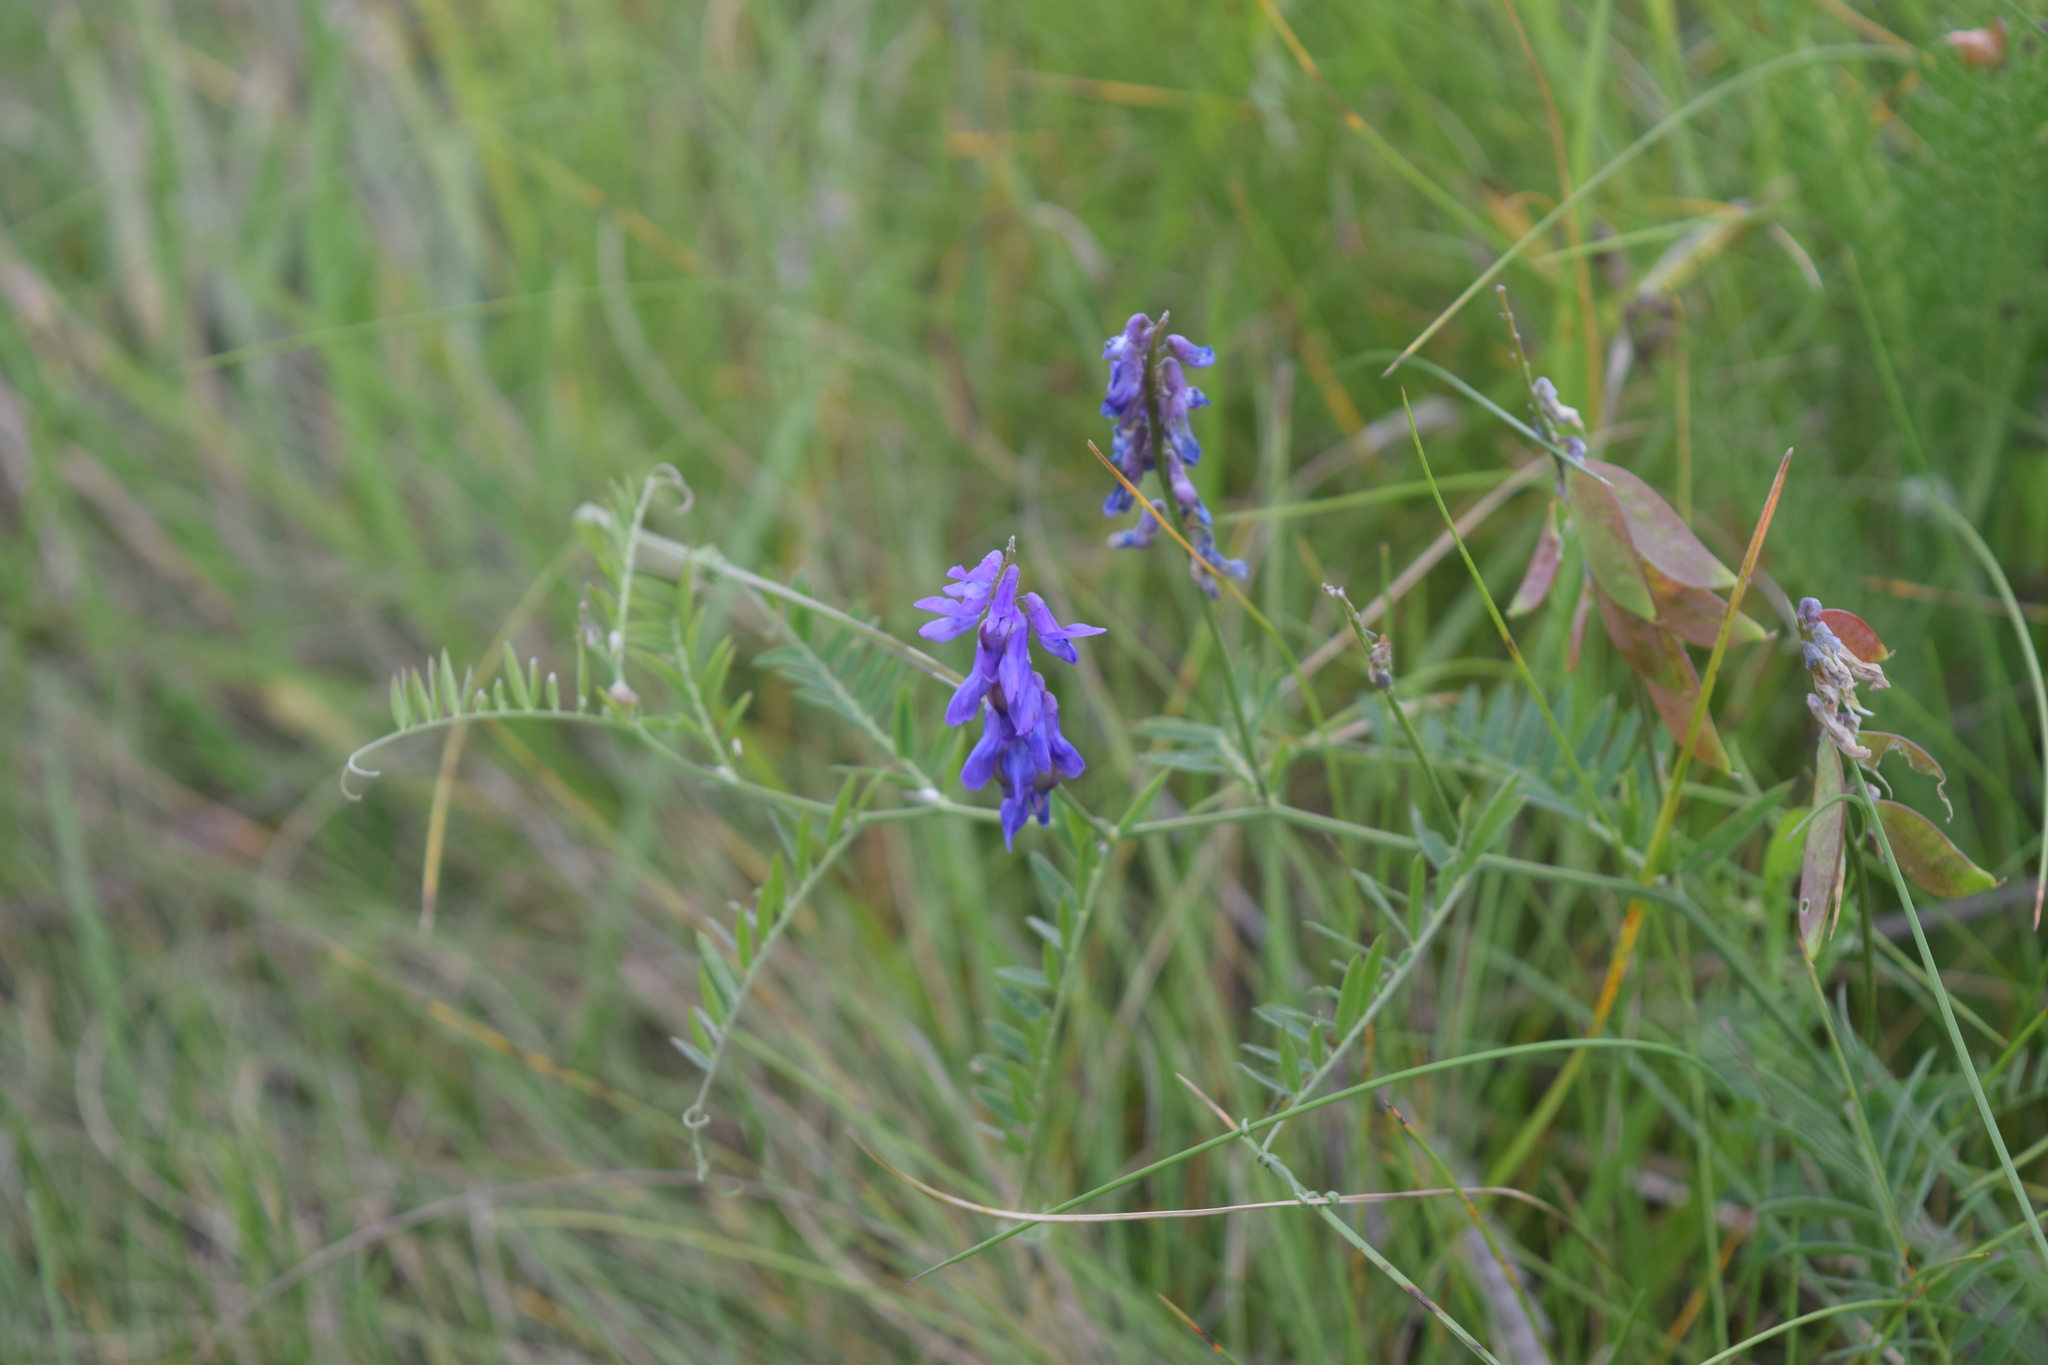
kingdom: Plantae
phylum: Tracheophyta
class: Magnoliopsida
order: Fabales
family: Fabaceae
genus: Vicia
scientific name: Vicia cracca
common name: Bird vetch
